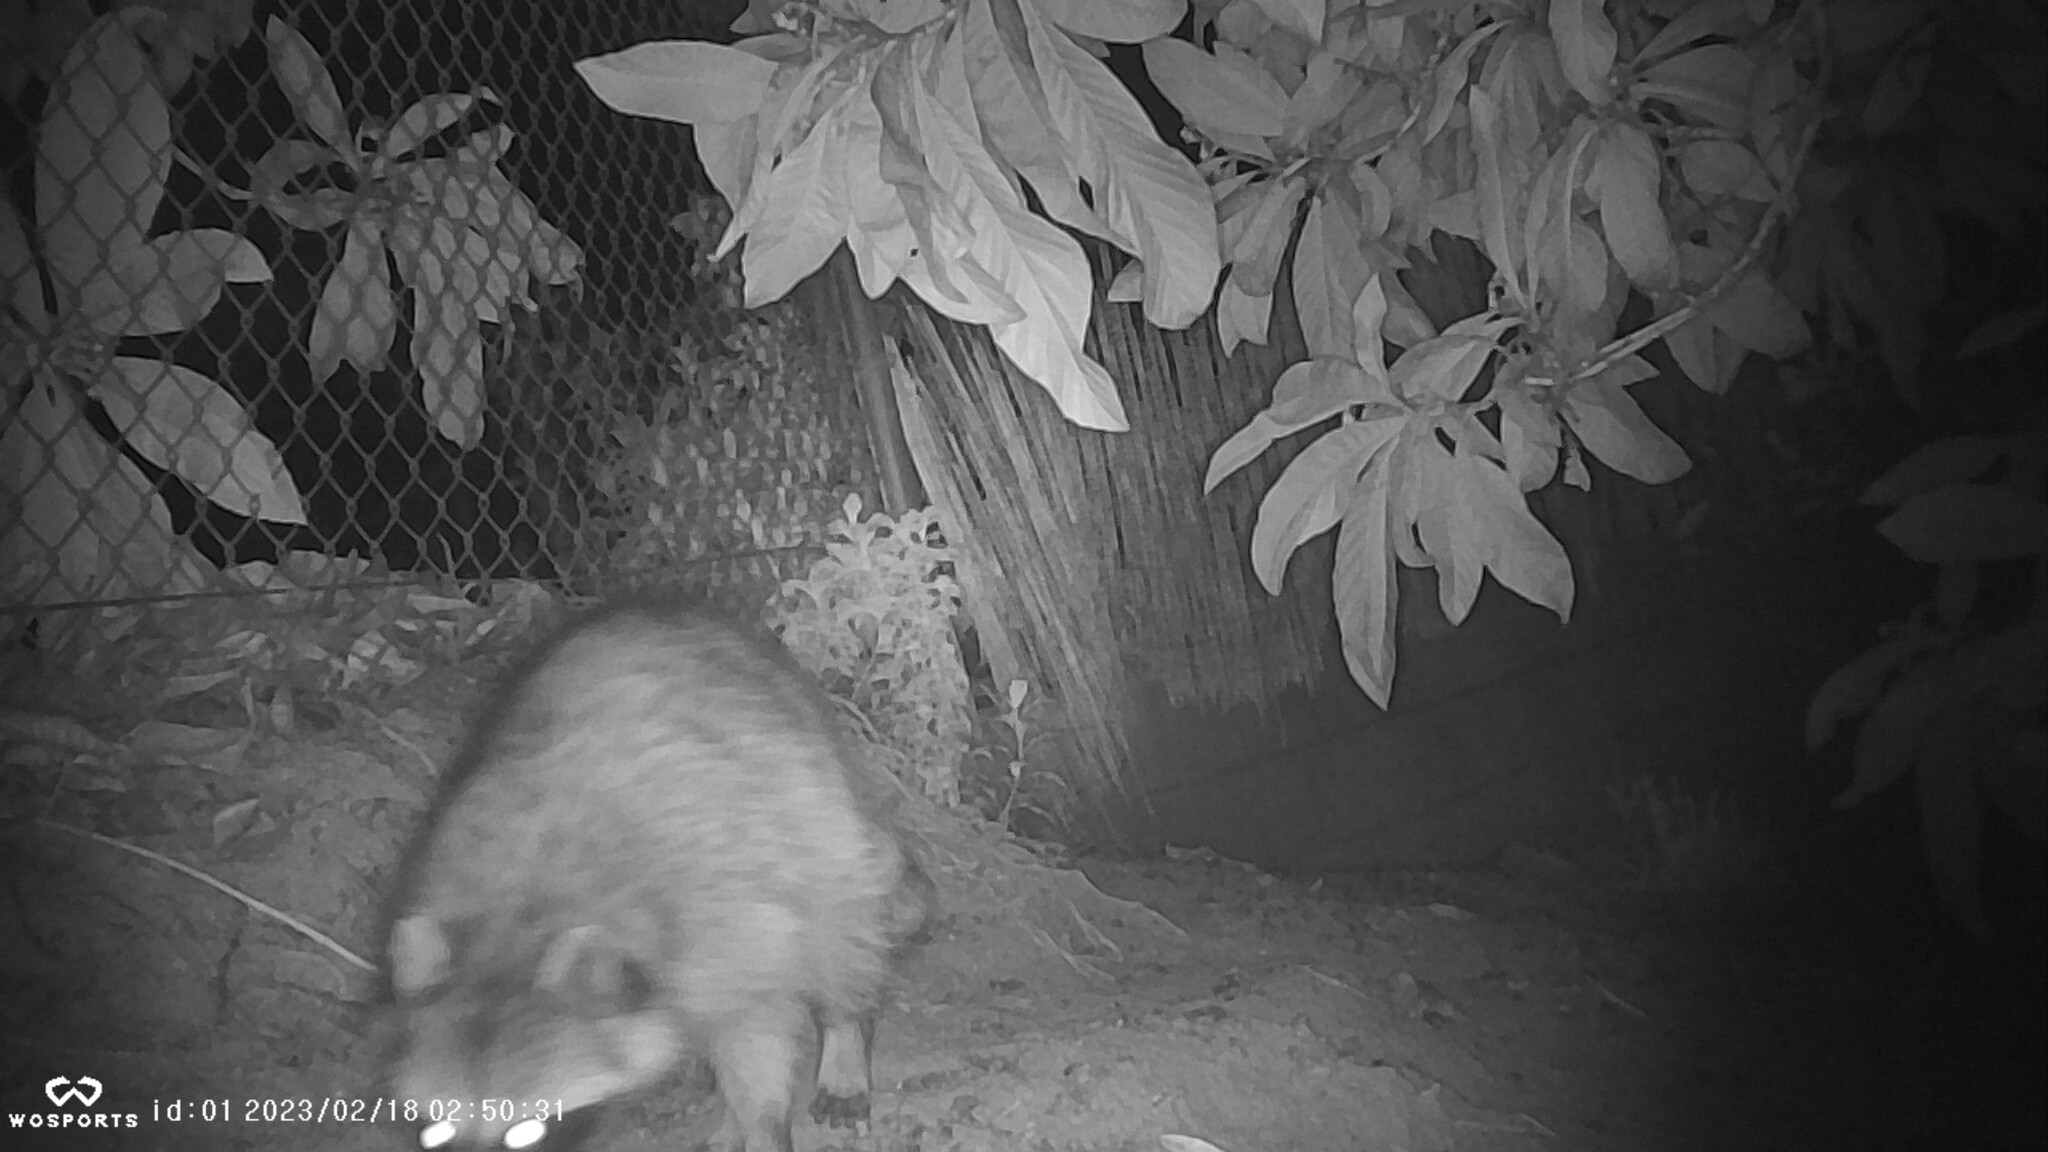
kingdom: Animalia
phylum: Chordata
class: Mammalia
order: Carnivora
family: Procyonidae
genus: Procyon
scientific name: Procyon lotor
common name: Raccoon
